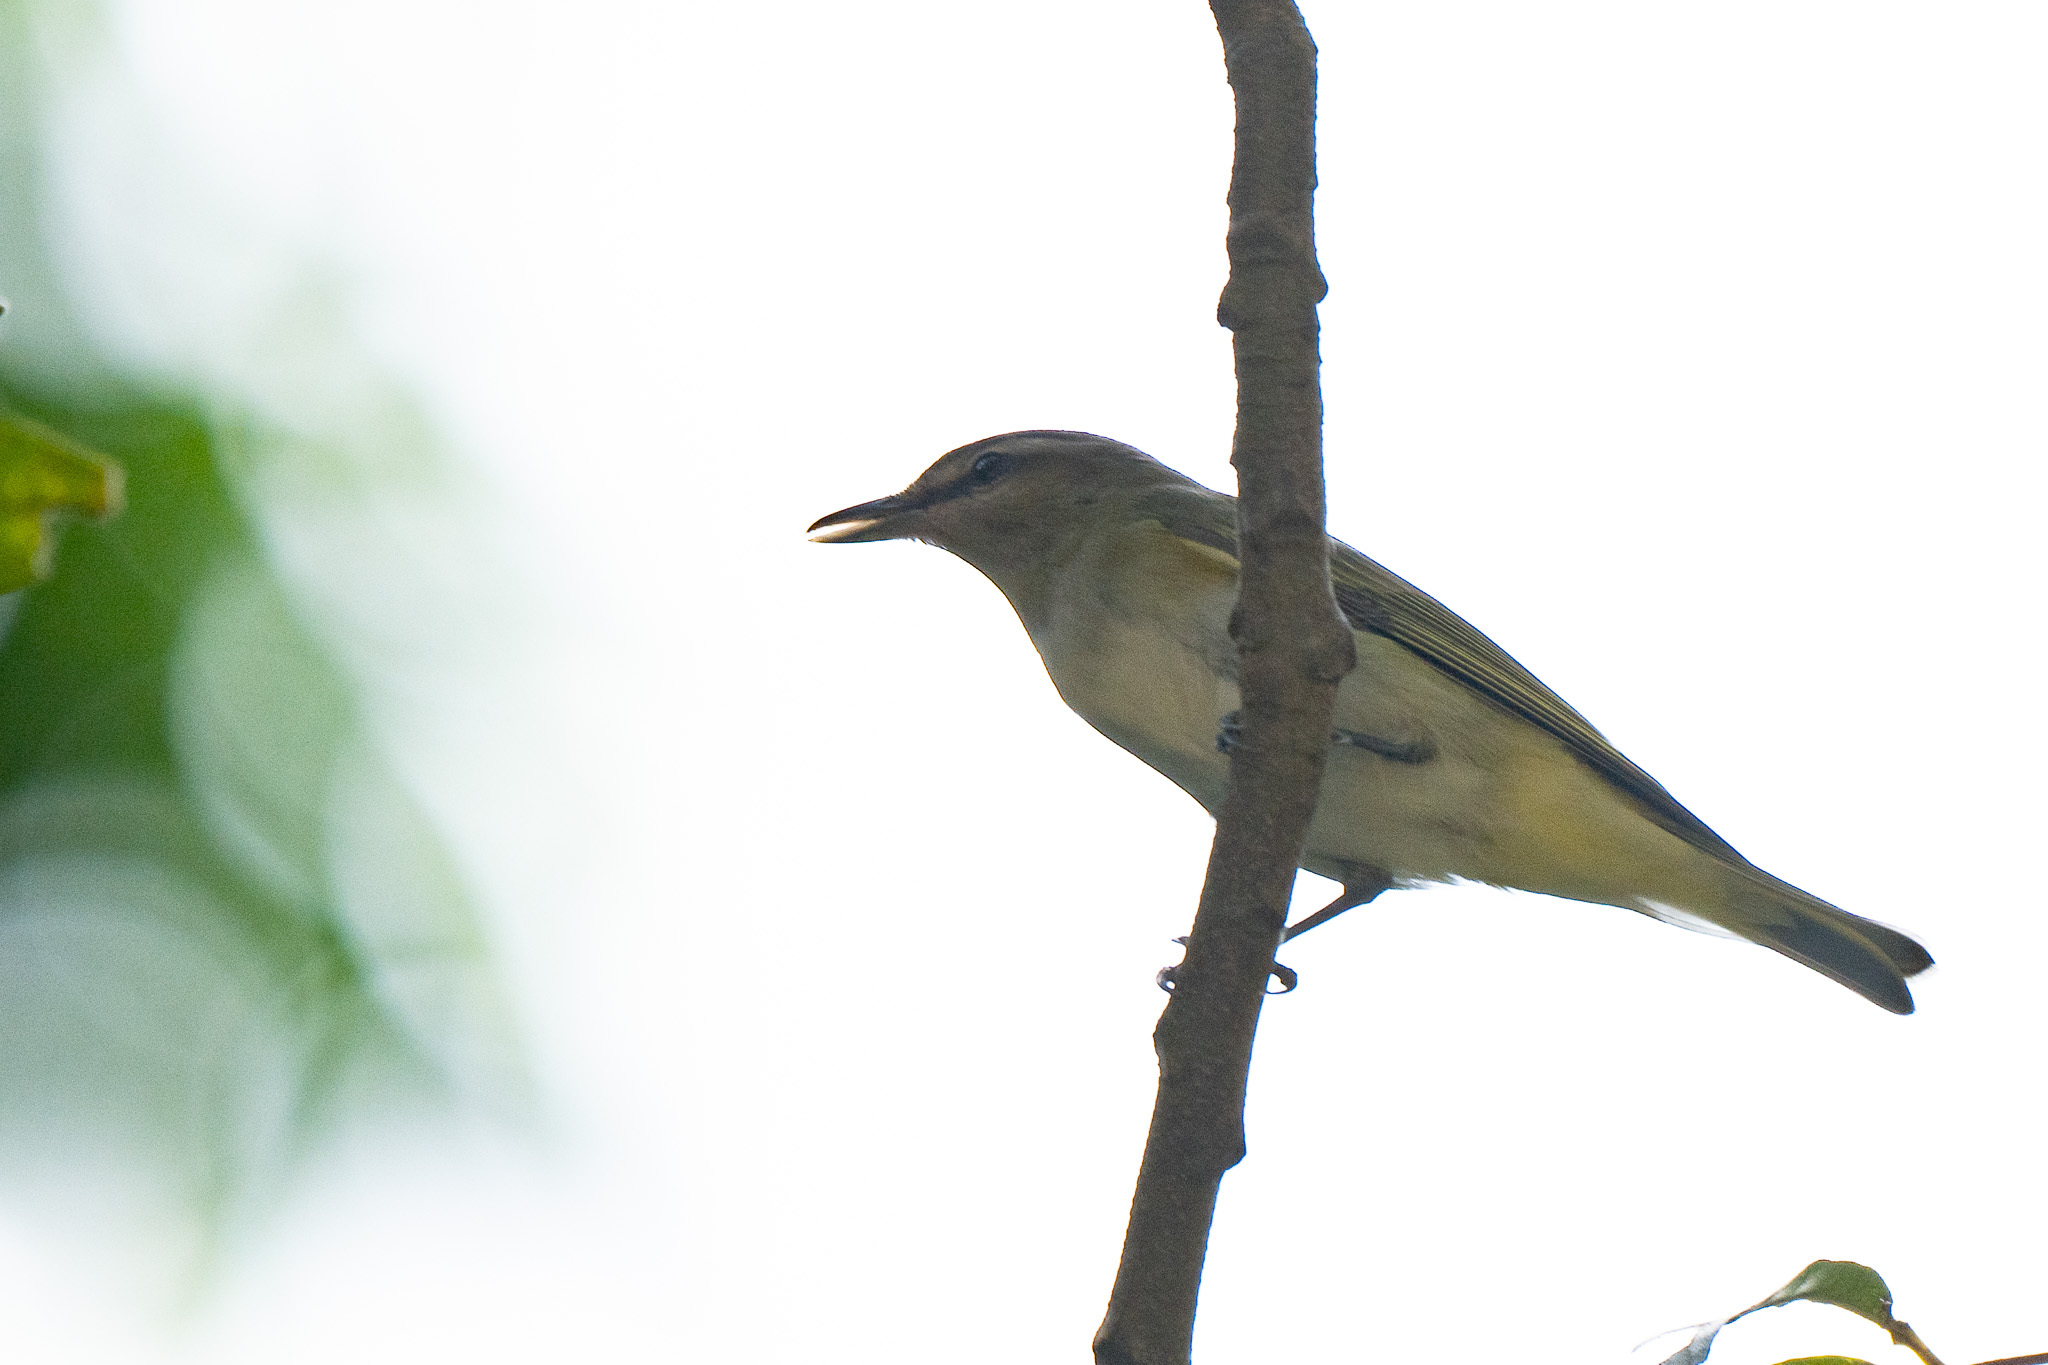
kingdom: Animalia
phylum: Chordata
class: Aves
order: Passeriformes
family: Vireonidae
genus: Vireo
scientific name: Vireo magister
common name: Yucatan vireo
